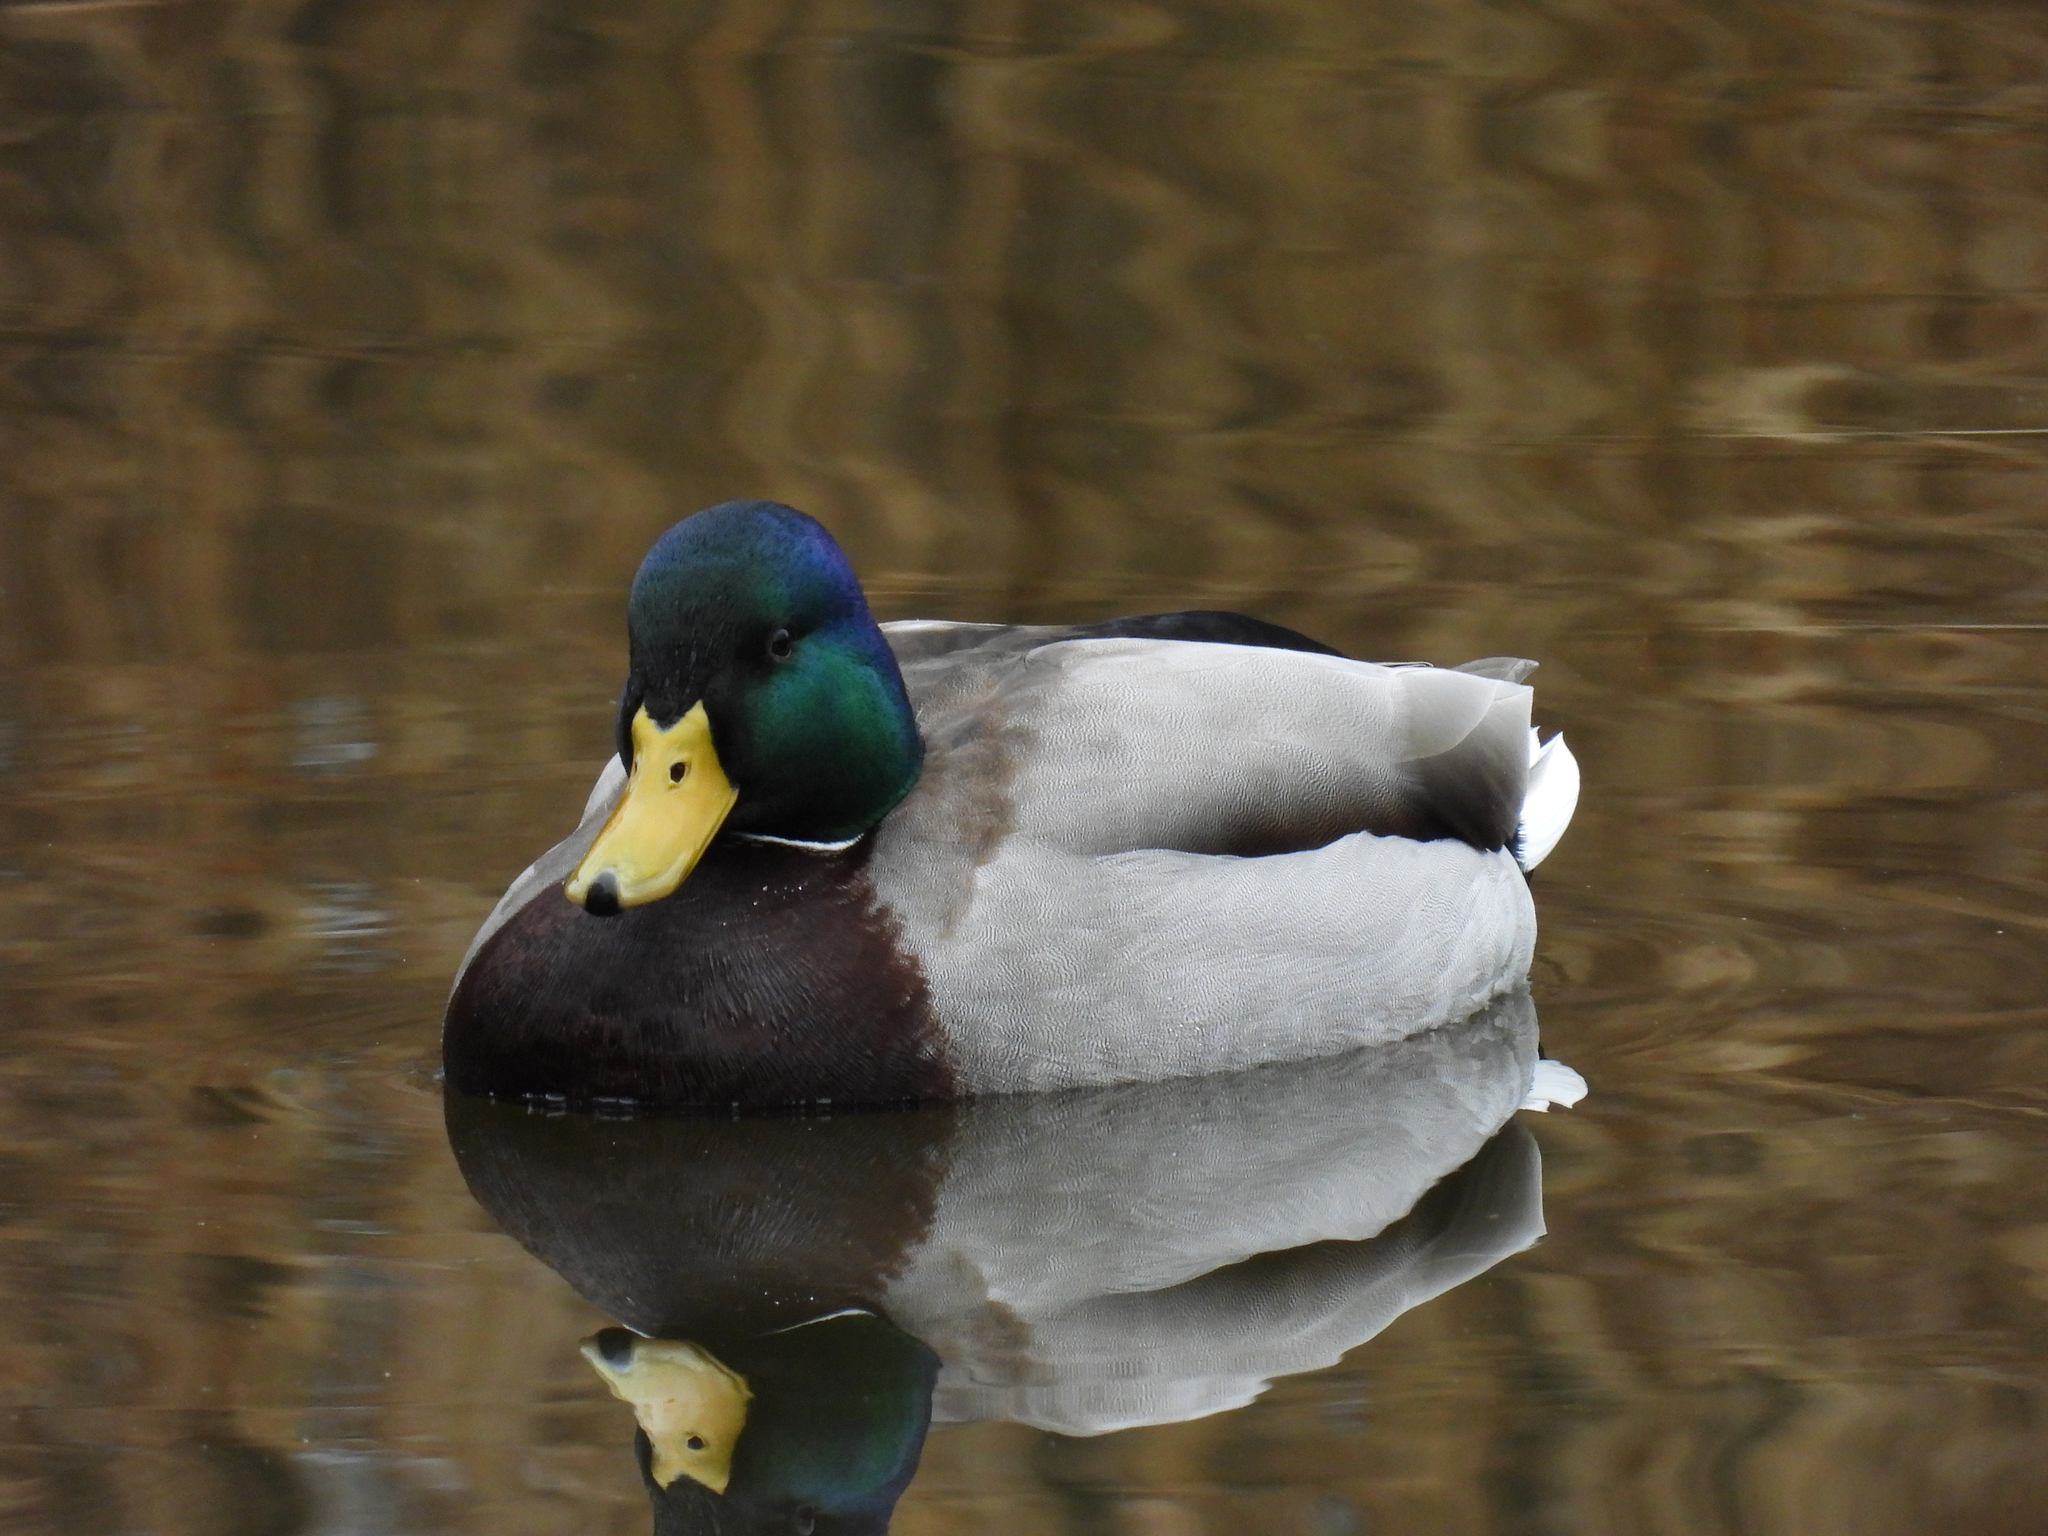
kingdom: Animalia
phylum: Chordata
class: Aves
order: Anseriformes
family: Anatidae
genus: Anas
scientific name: Anas platyrhynchos
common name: Mallard
